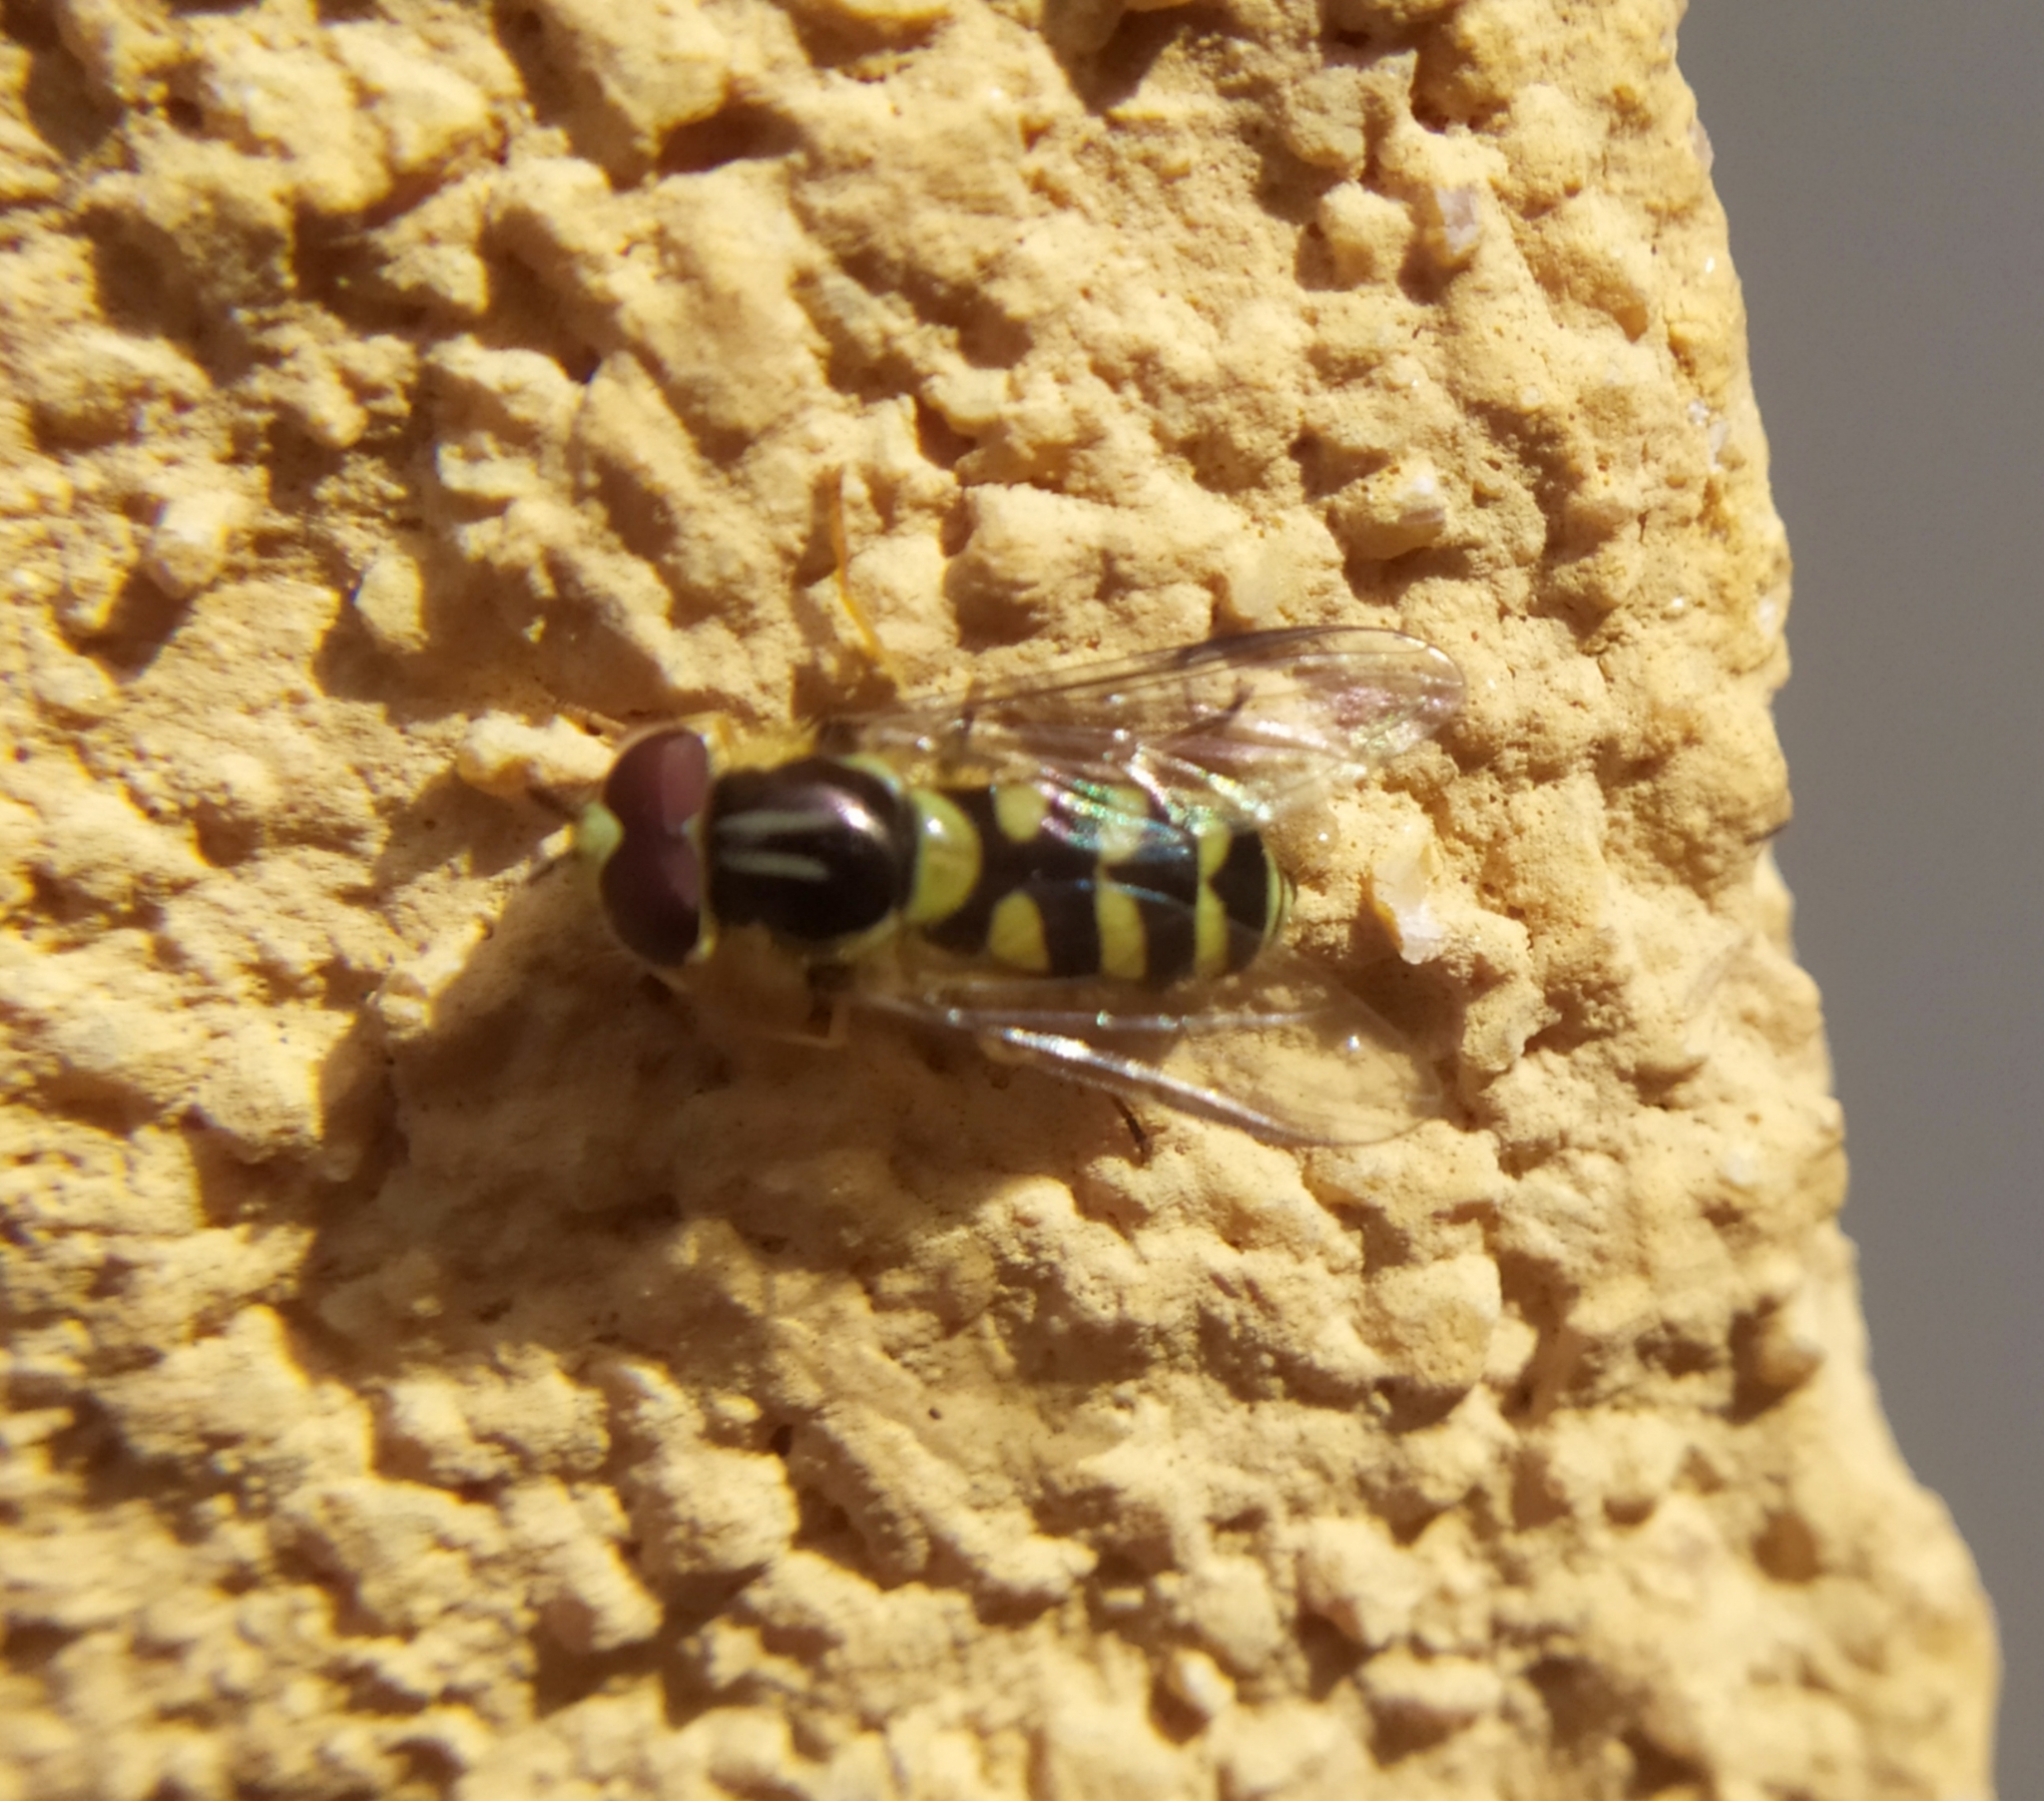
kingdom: Animalia
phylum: Arthropoda
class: Insecta
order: Diptera
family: Syrphidae
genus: Dasysyrphus
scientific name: Dasysyrphus albostriatus
